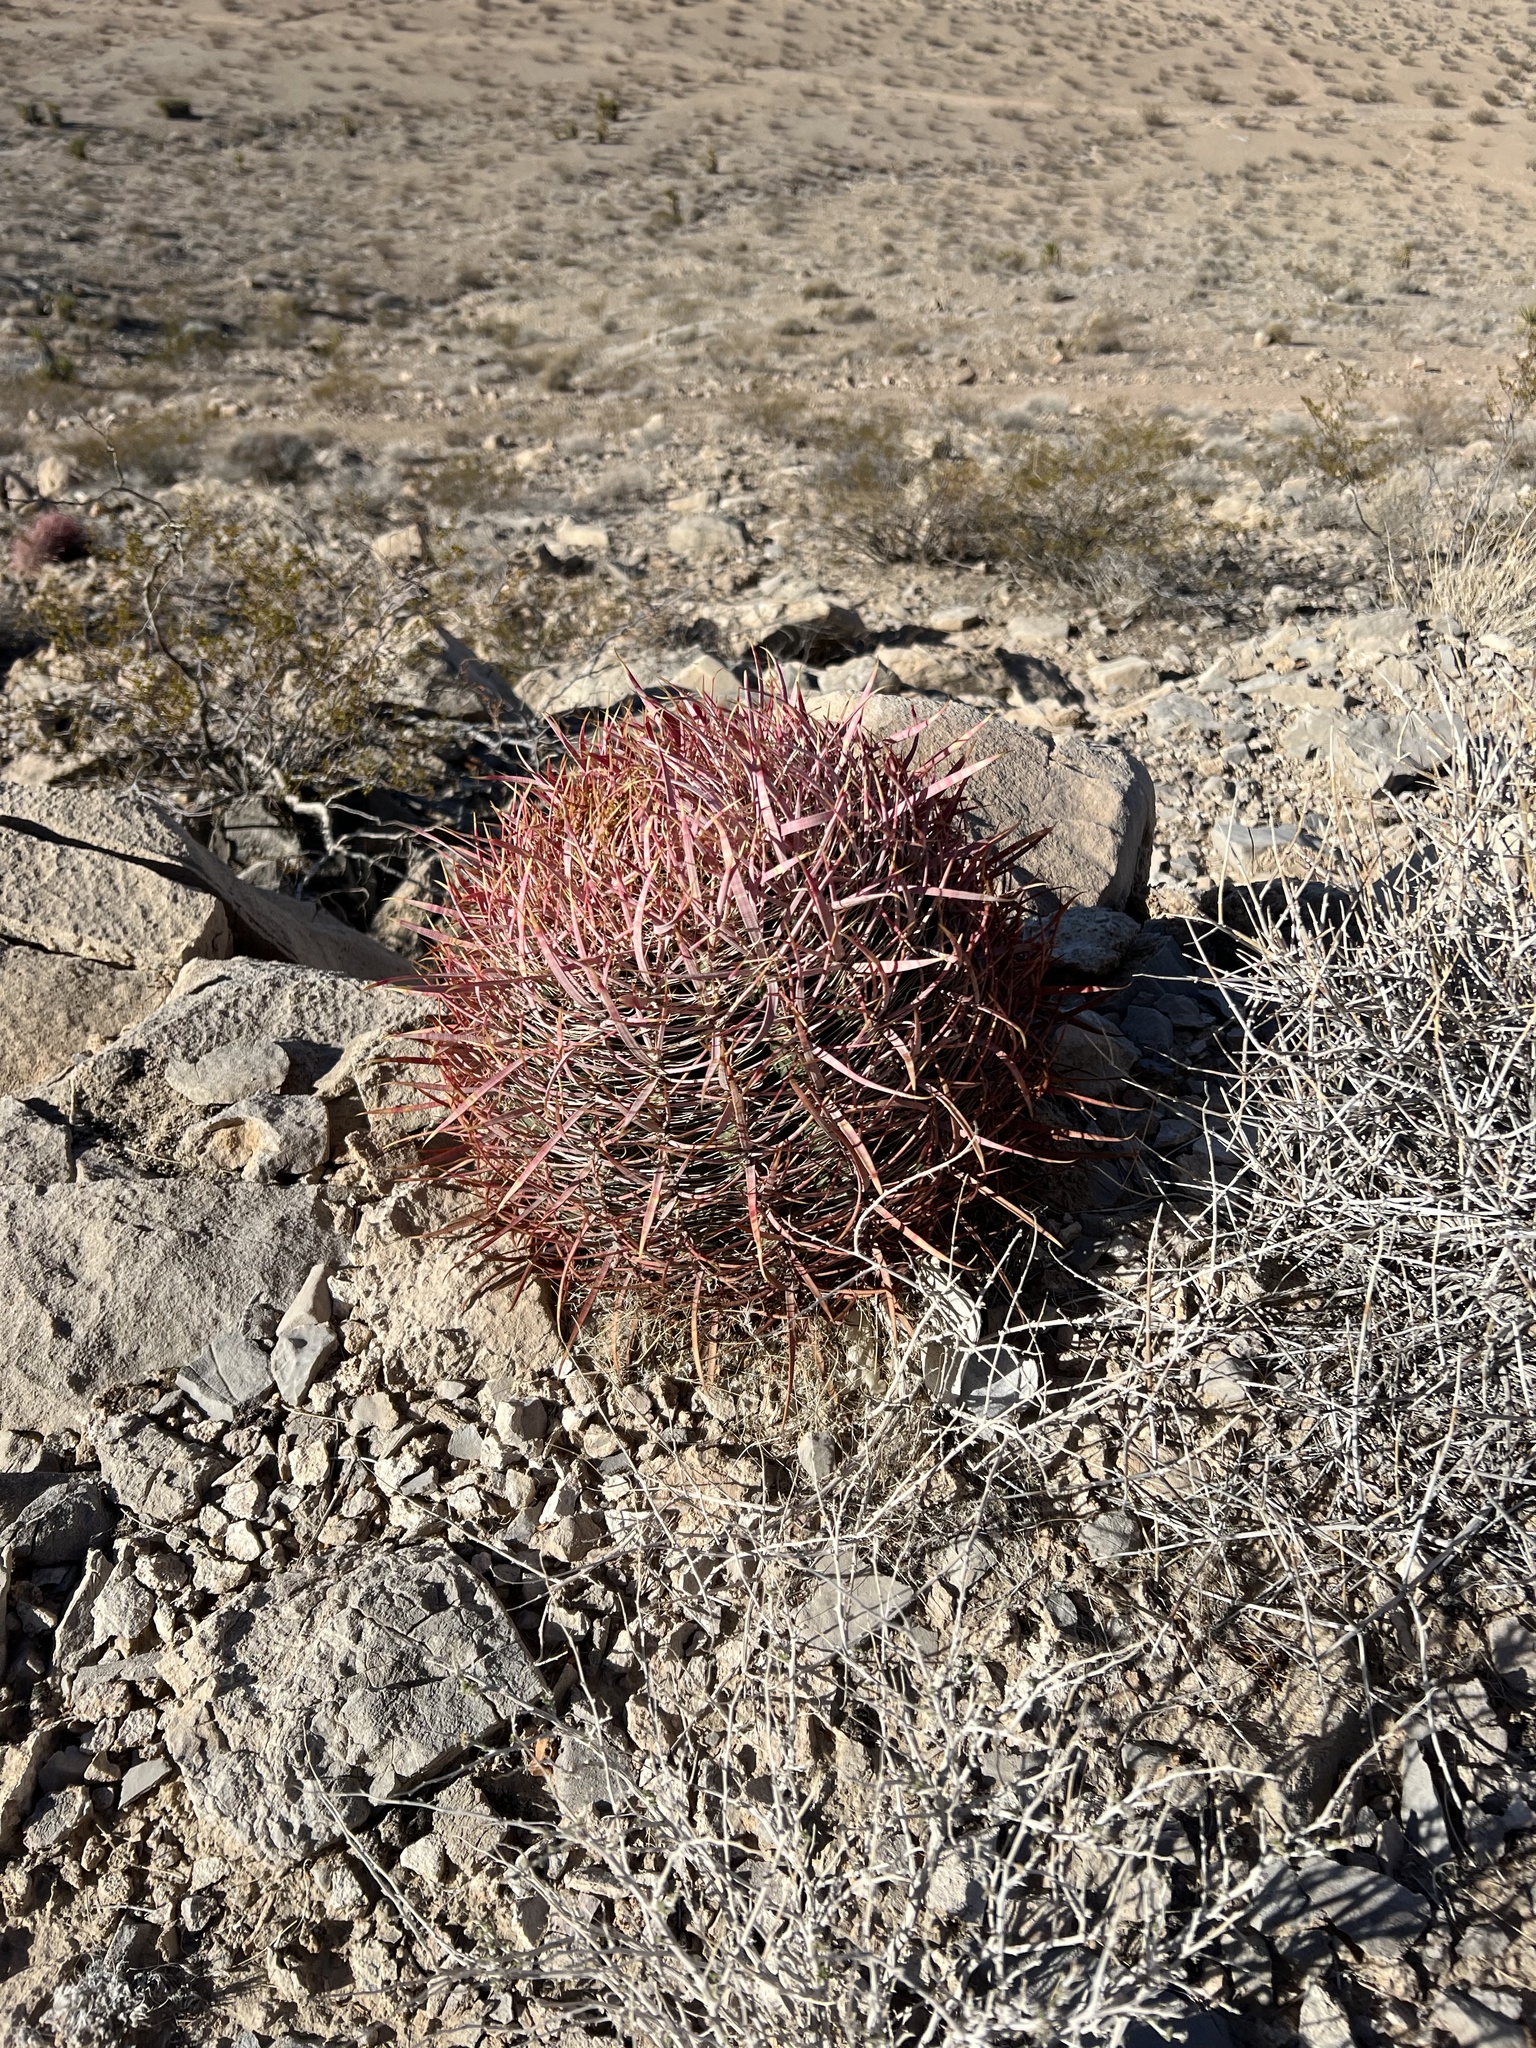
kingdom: Plantae
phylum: Tracheophyta
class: Magnoliopsida
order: Caryophyllales
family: Cactaceae
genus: Ferocactus
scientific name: Ferocactus cylindraceus
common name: California barrel cactus
